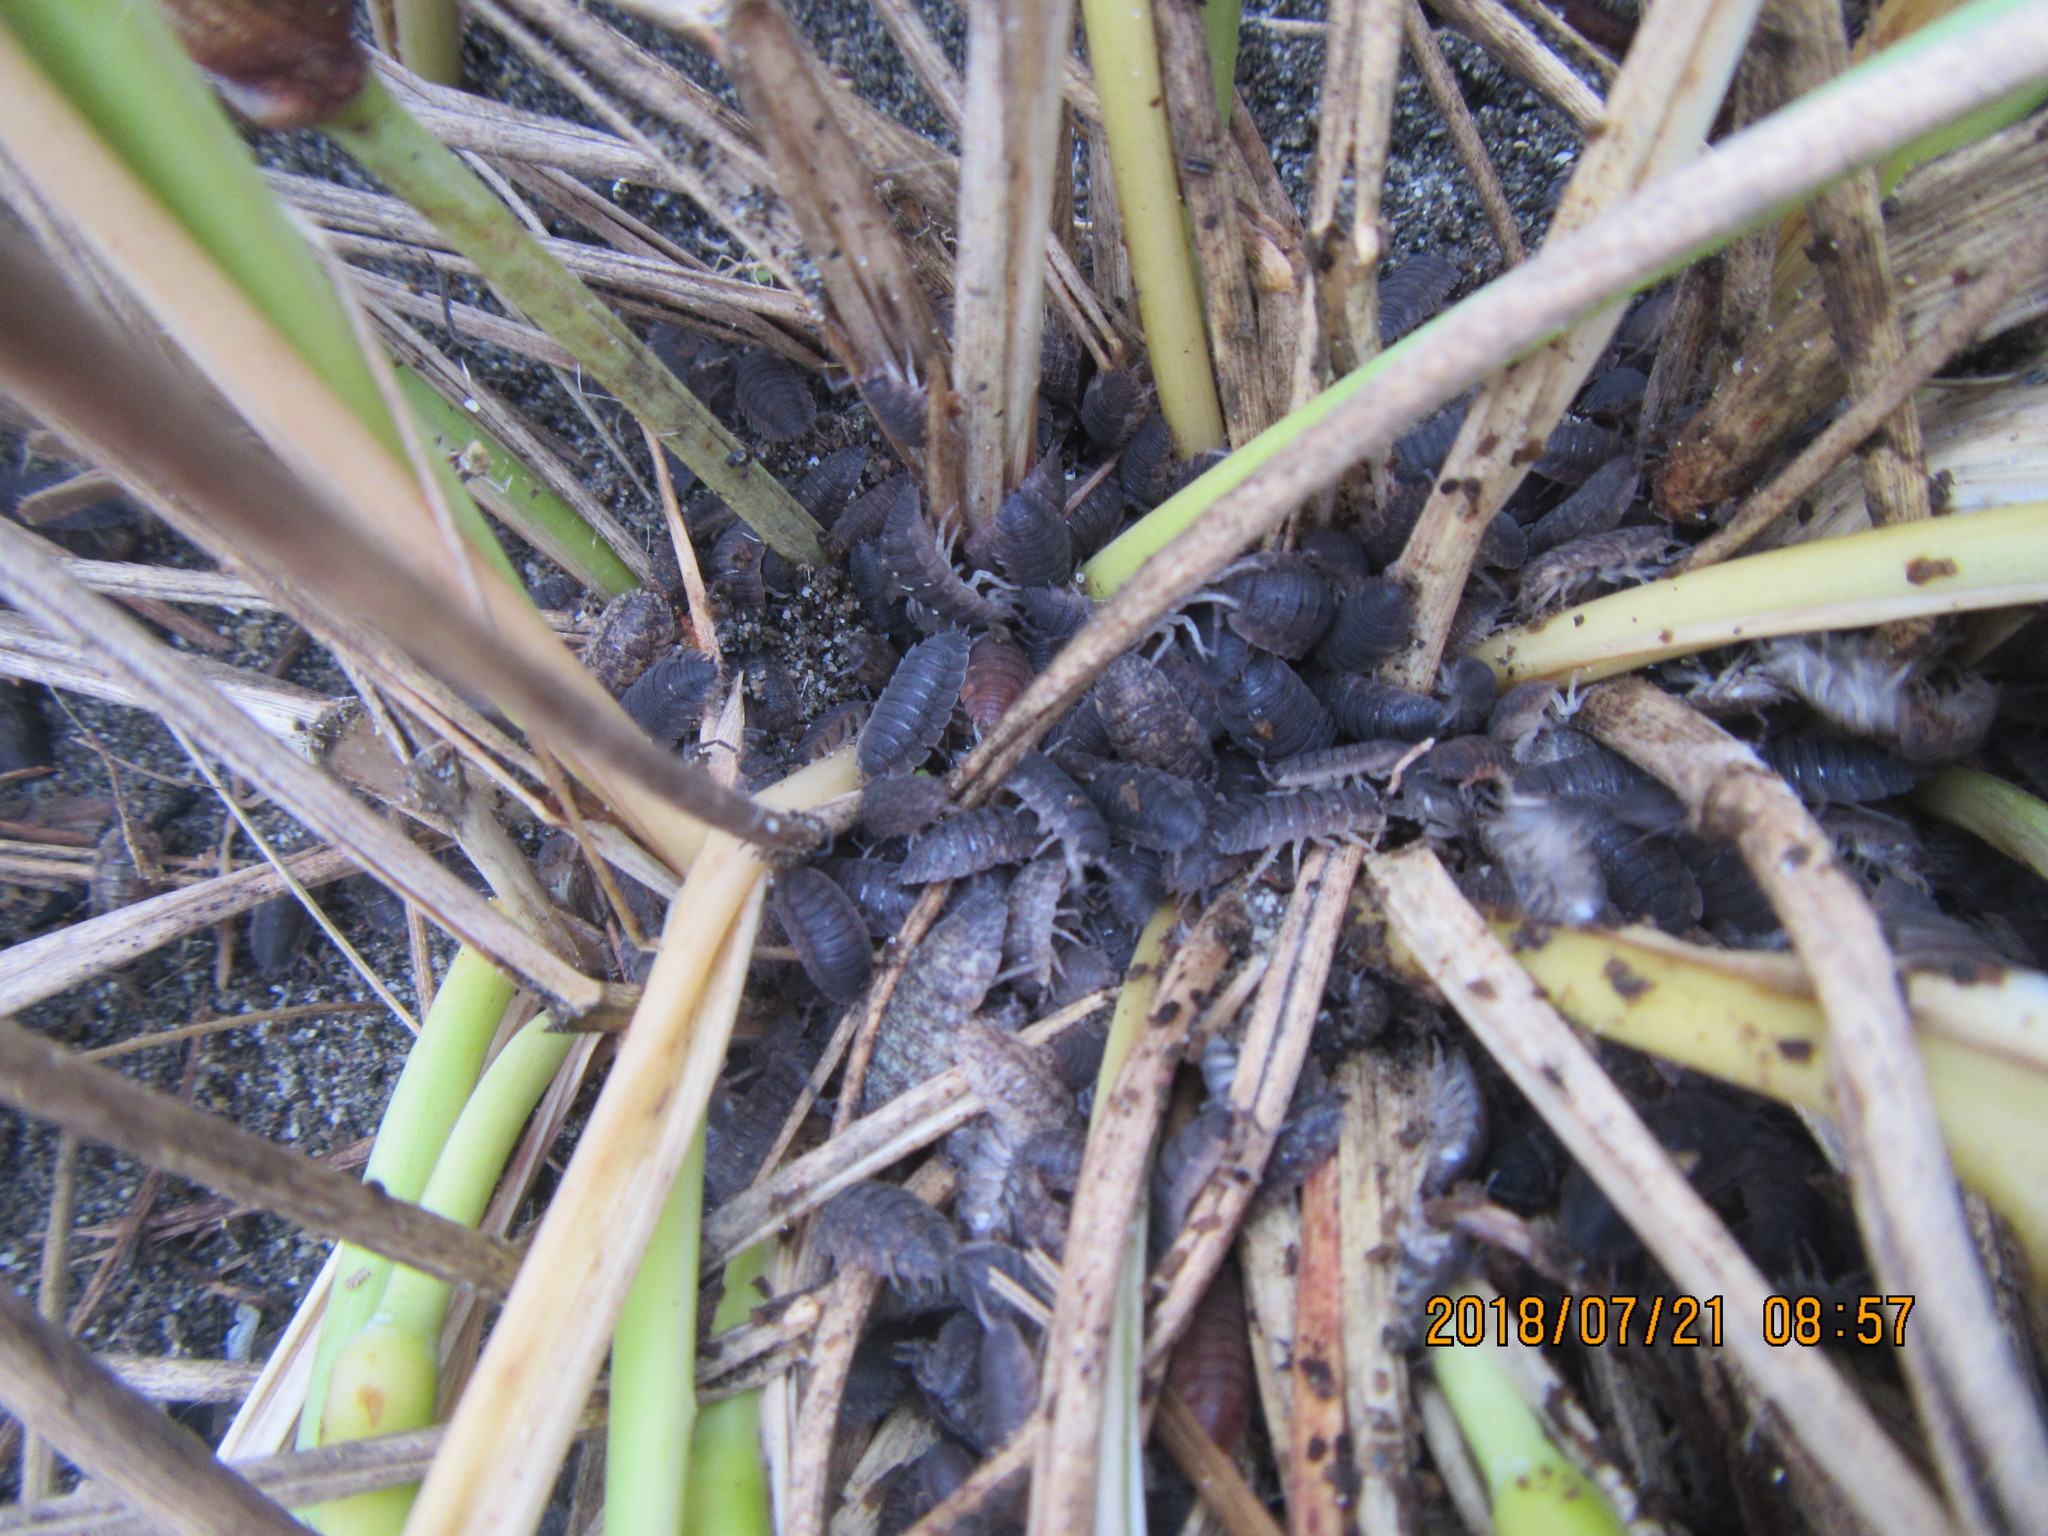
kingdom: Animalia
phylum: Arthropoda
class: Malacostraca
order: Isopoda
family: Porcellionidae
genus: Porcellio
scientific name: Porcellio scaber
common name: Common rough woodlouse
